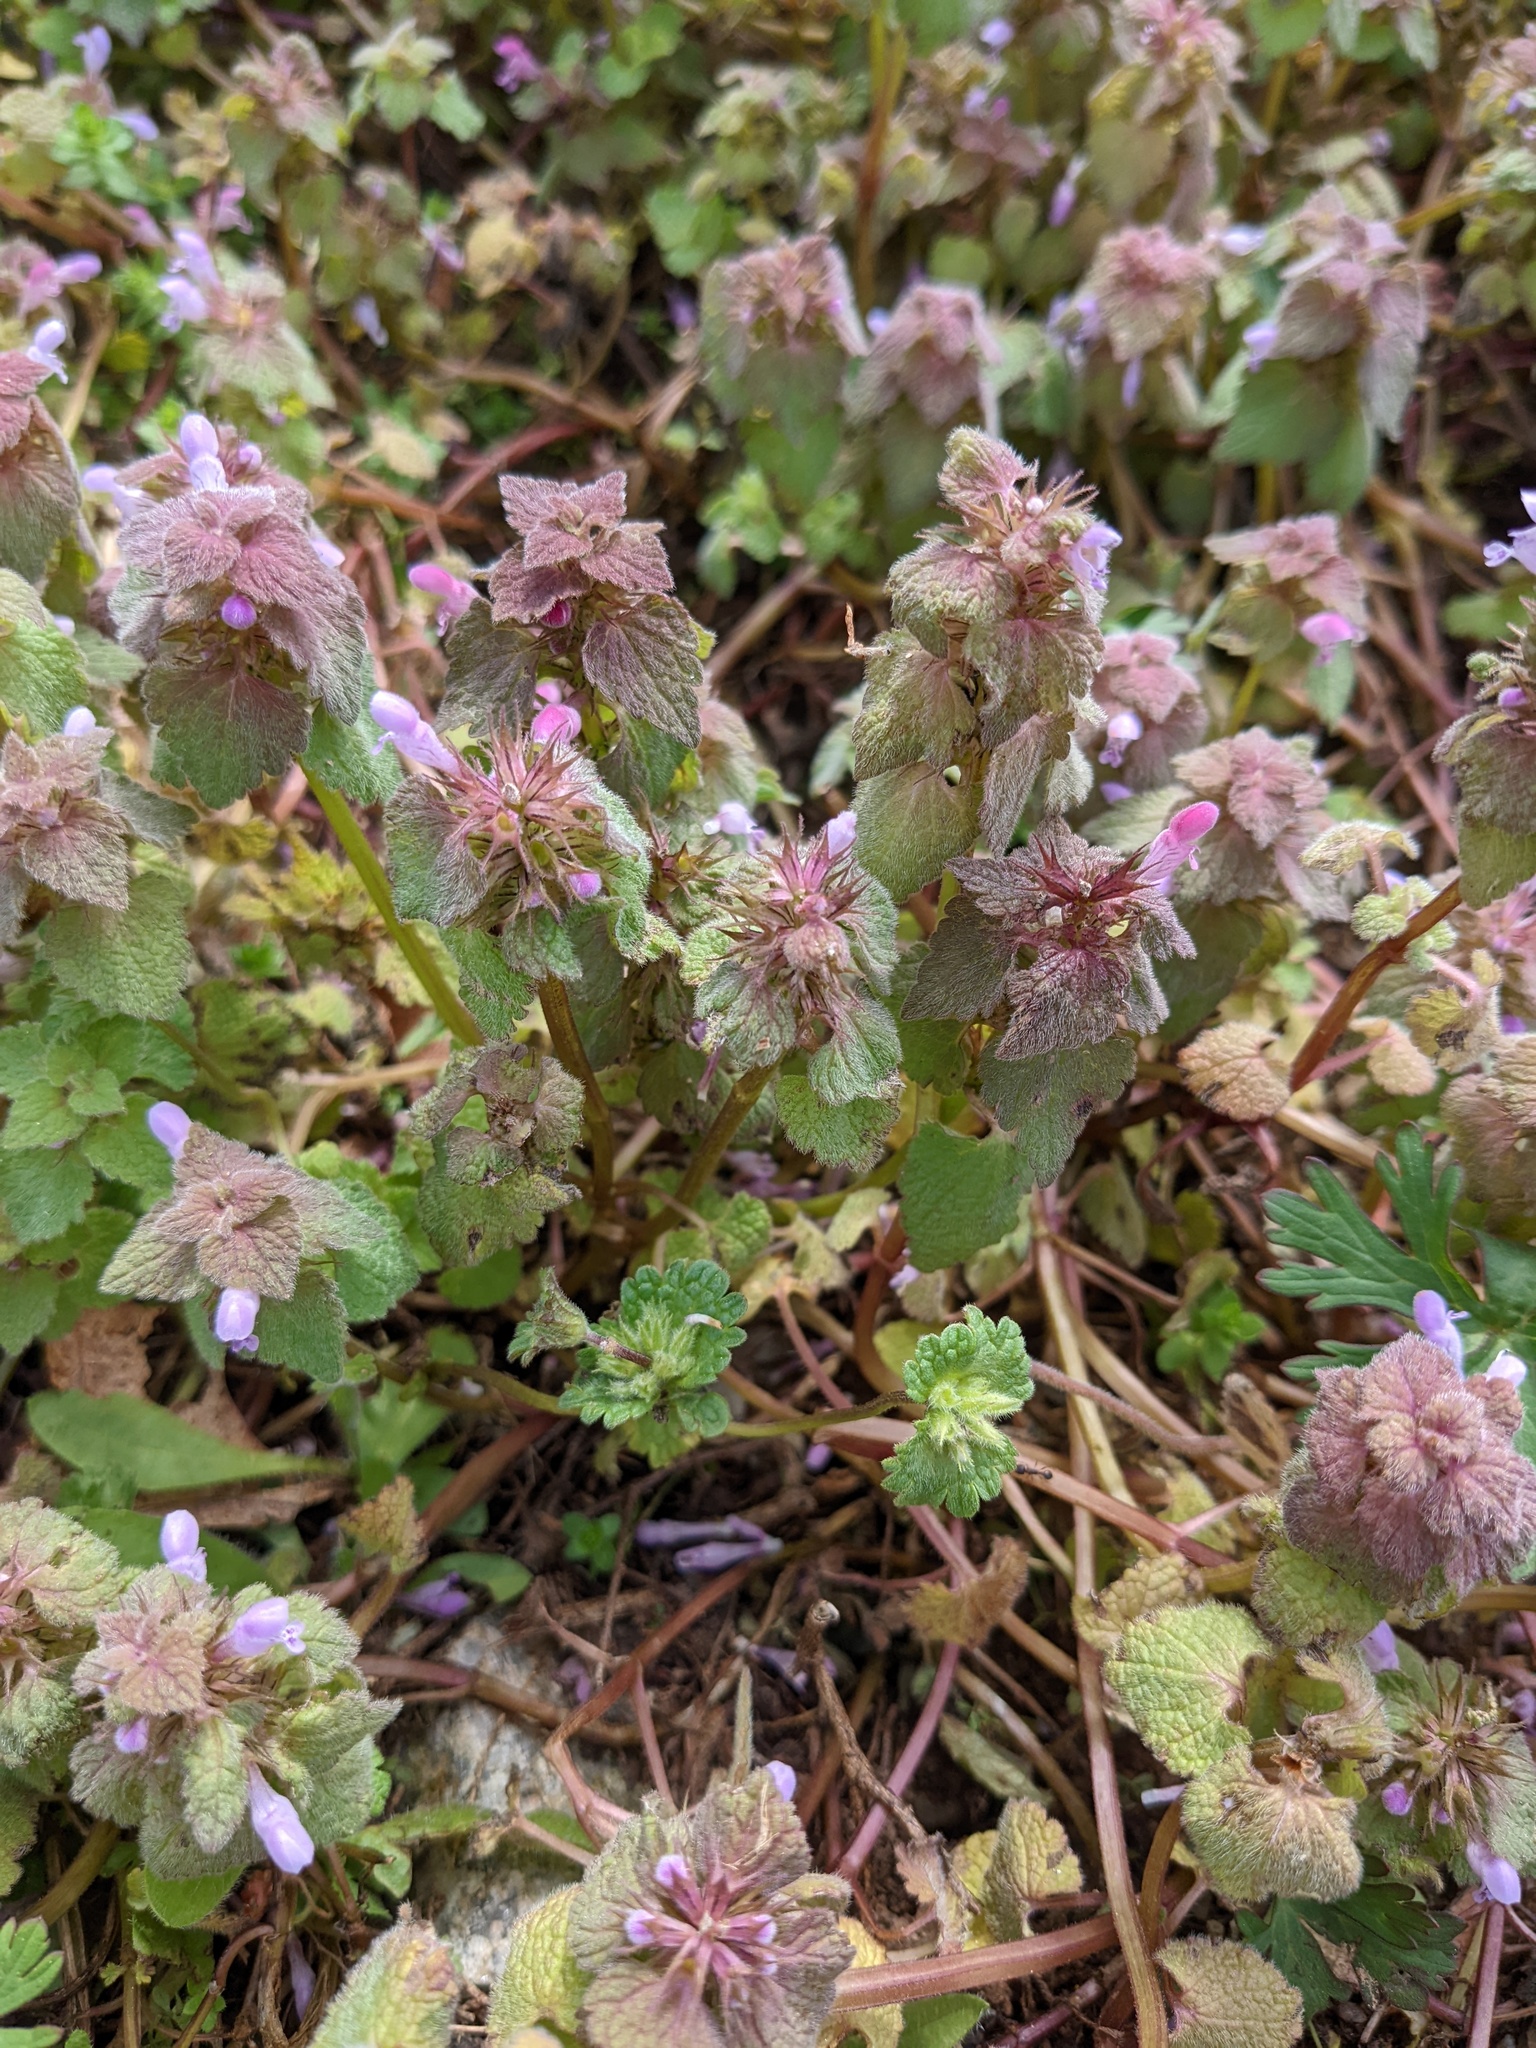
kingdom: Plantae
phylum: Tracheophyta
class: Magnoliopsida
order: Lamiales
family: Lamiaceae
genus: Lamium
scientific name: Lamium purpureum
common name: Red dead-nettle
